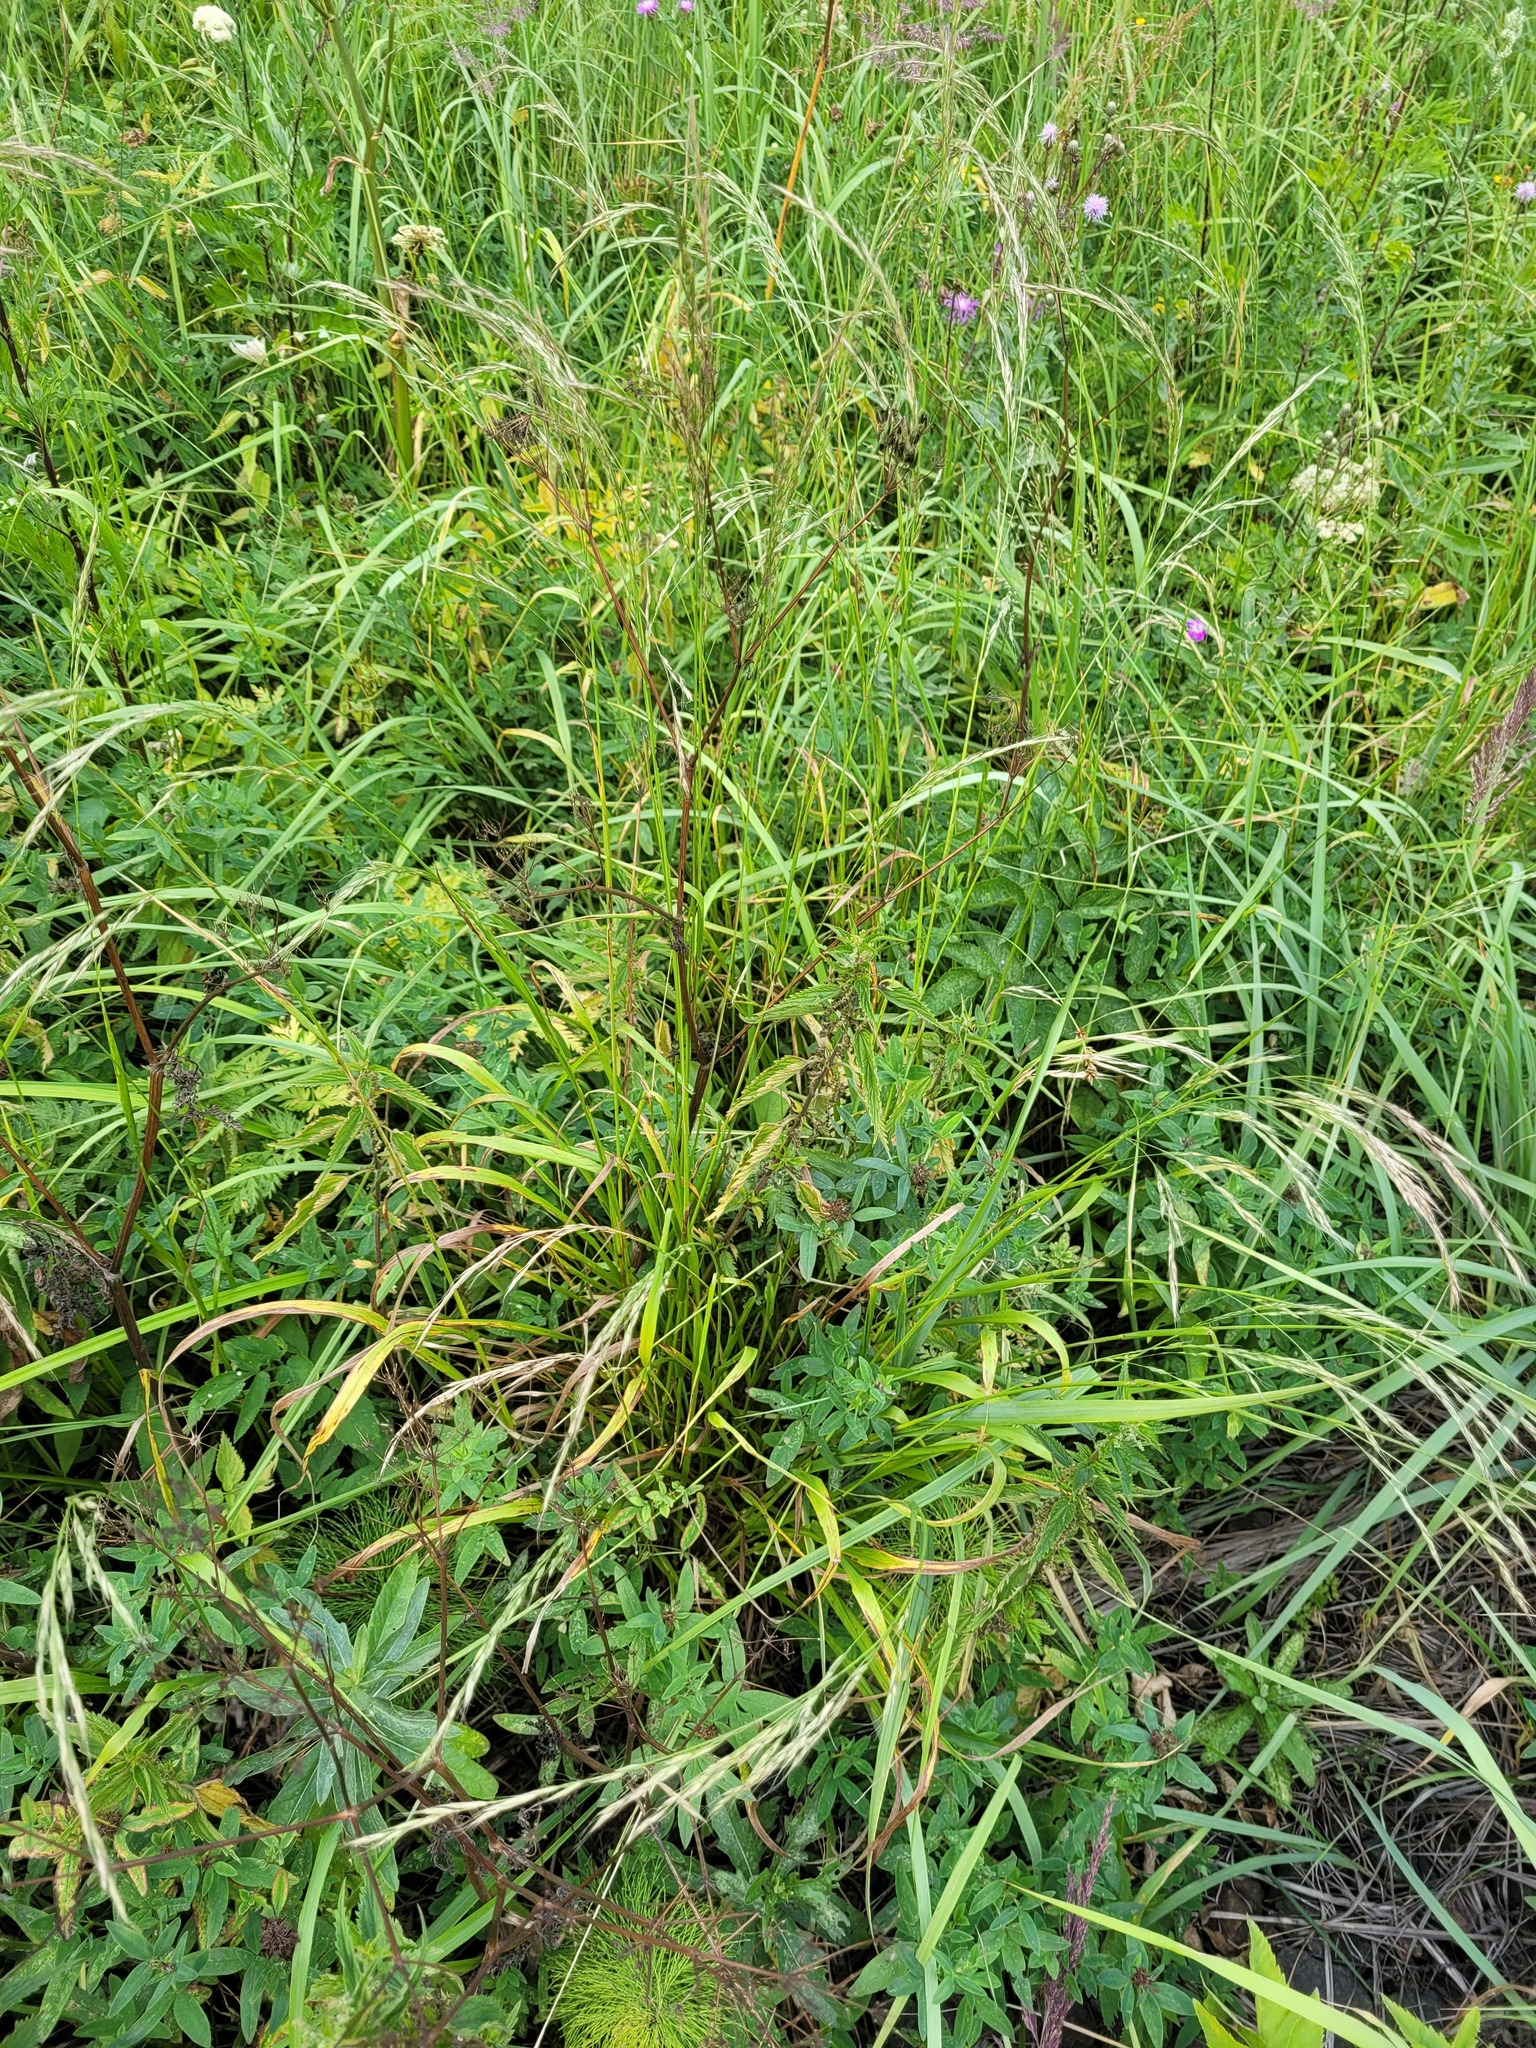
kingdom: Plantae
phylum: Tracheophyta
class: Liliopsida
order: Poales
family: Poaceae
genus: Lolium
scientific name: Lolium giganteum
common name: Giant fescue
